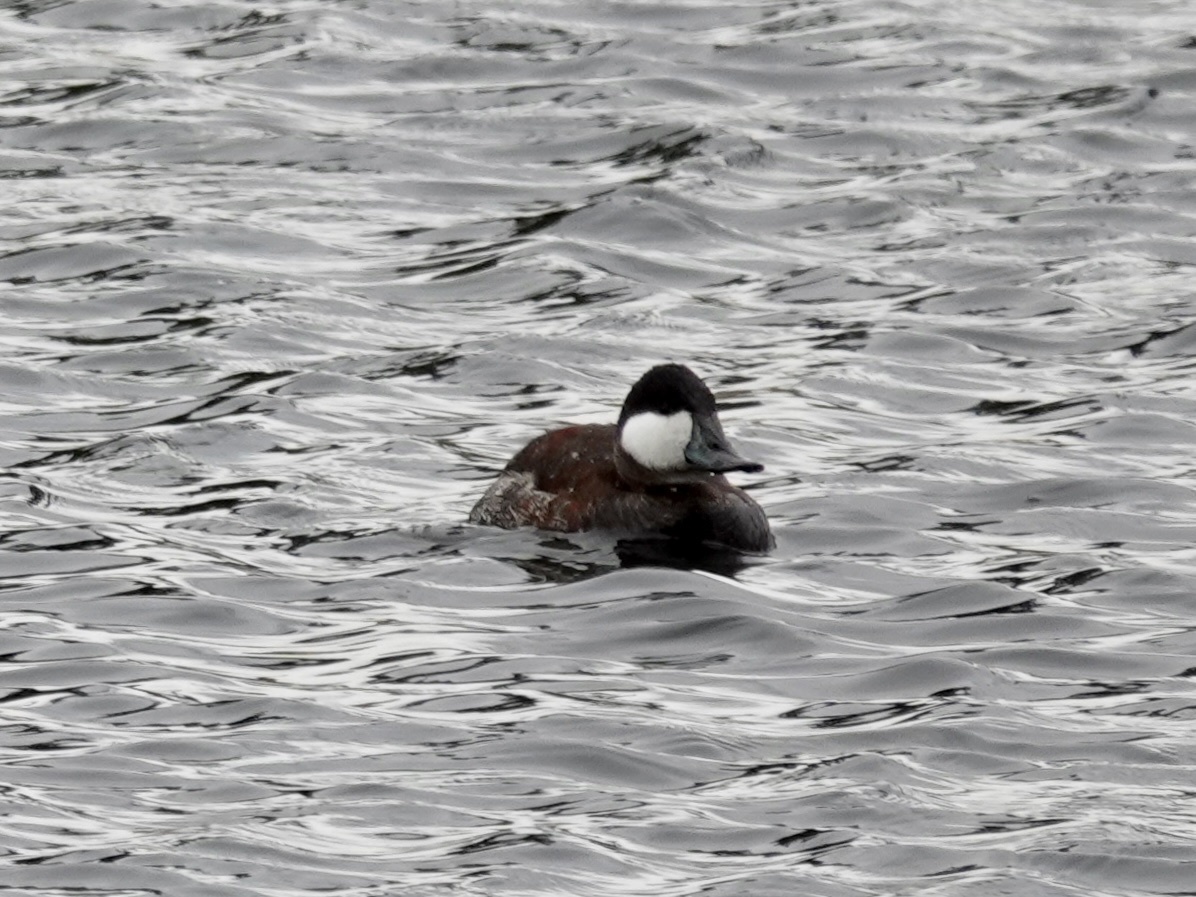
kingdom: Animalia
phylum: Chordata
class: Aves
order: Anseriformes
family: Anatidae
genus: Oxyura
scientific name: Oxyura jamaicensis
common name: Ruddy duck
